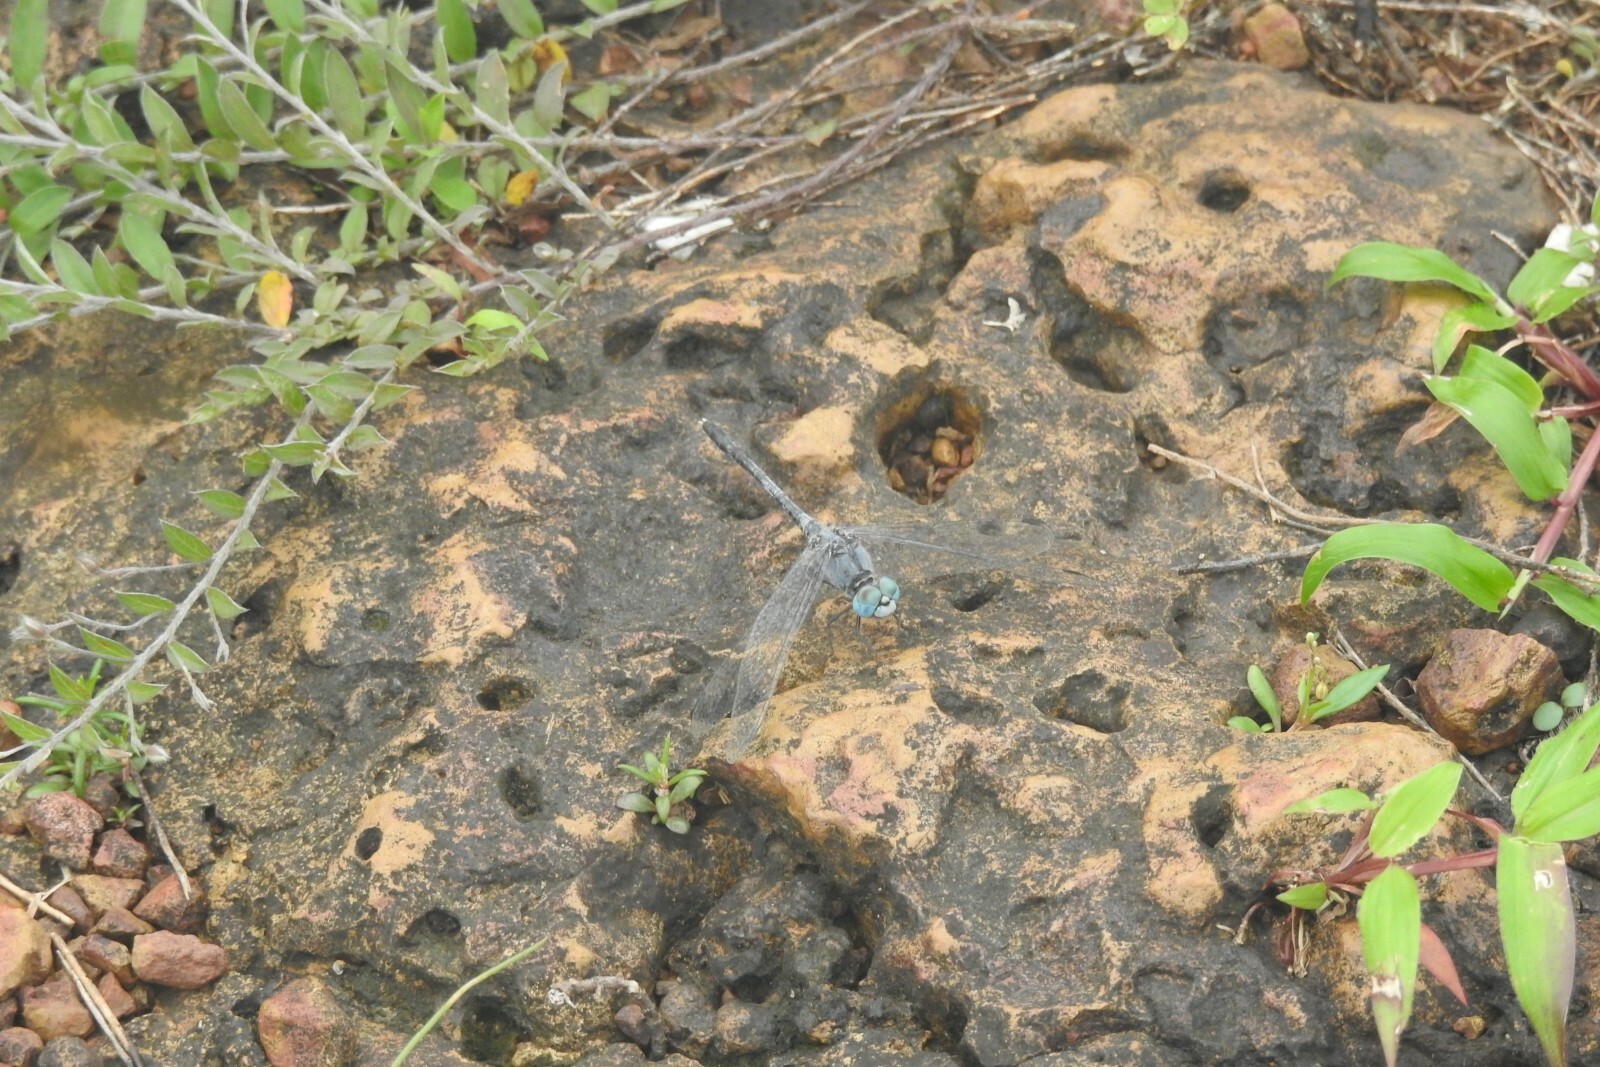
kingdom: Animalia
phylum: Arthropoda
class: Insecta
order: Odonata
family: Libellulidae
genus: Diplacodes
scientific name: Diplacodes trivialis
